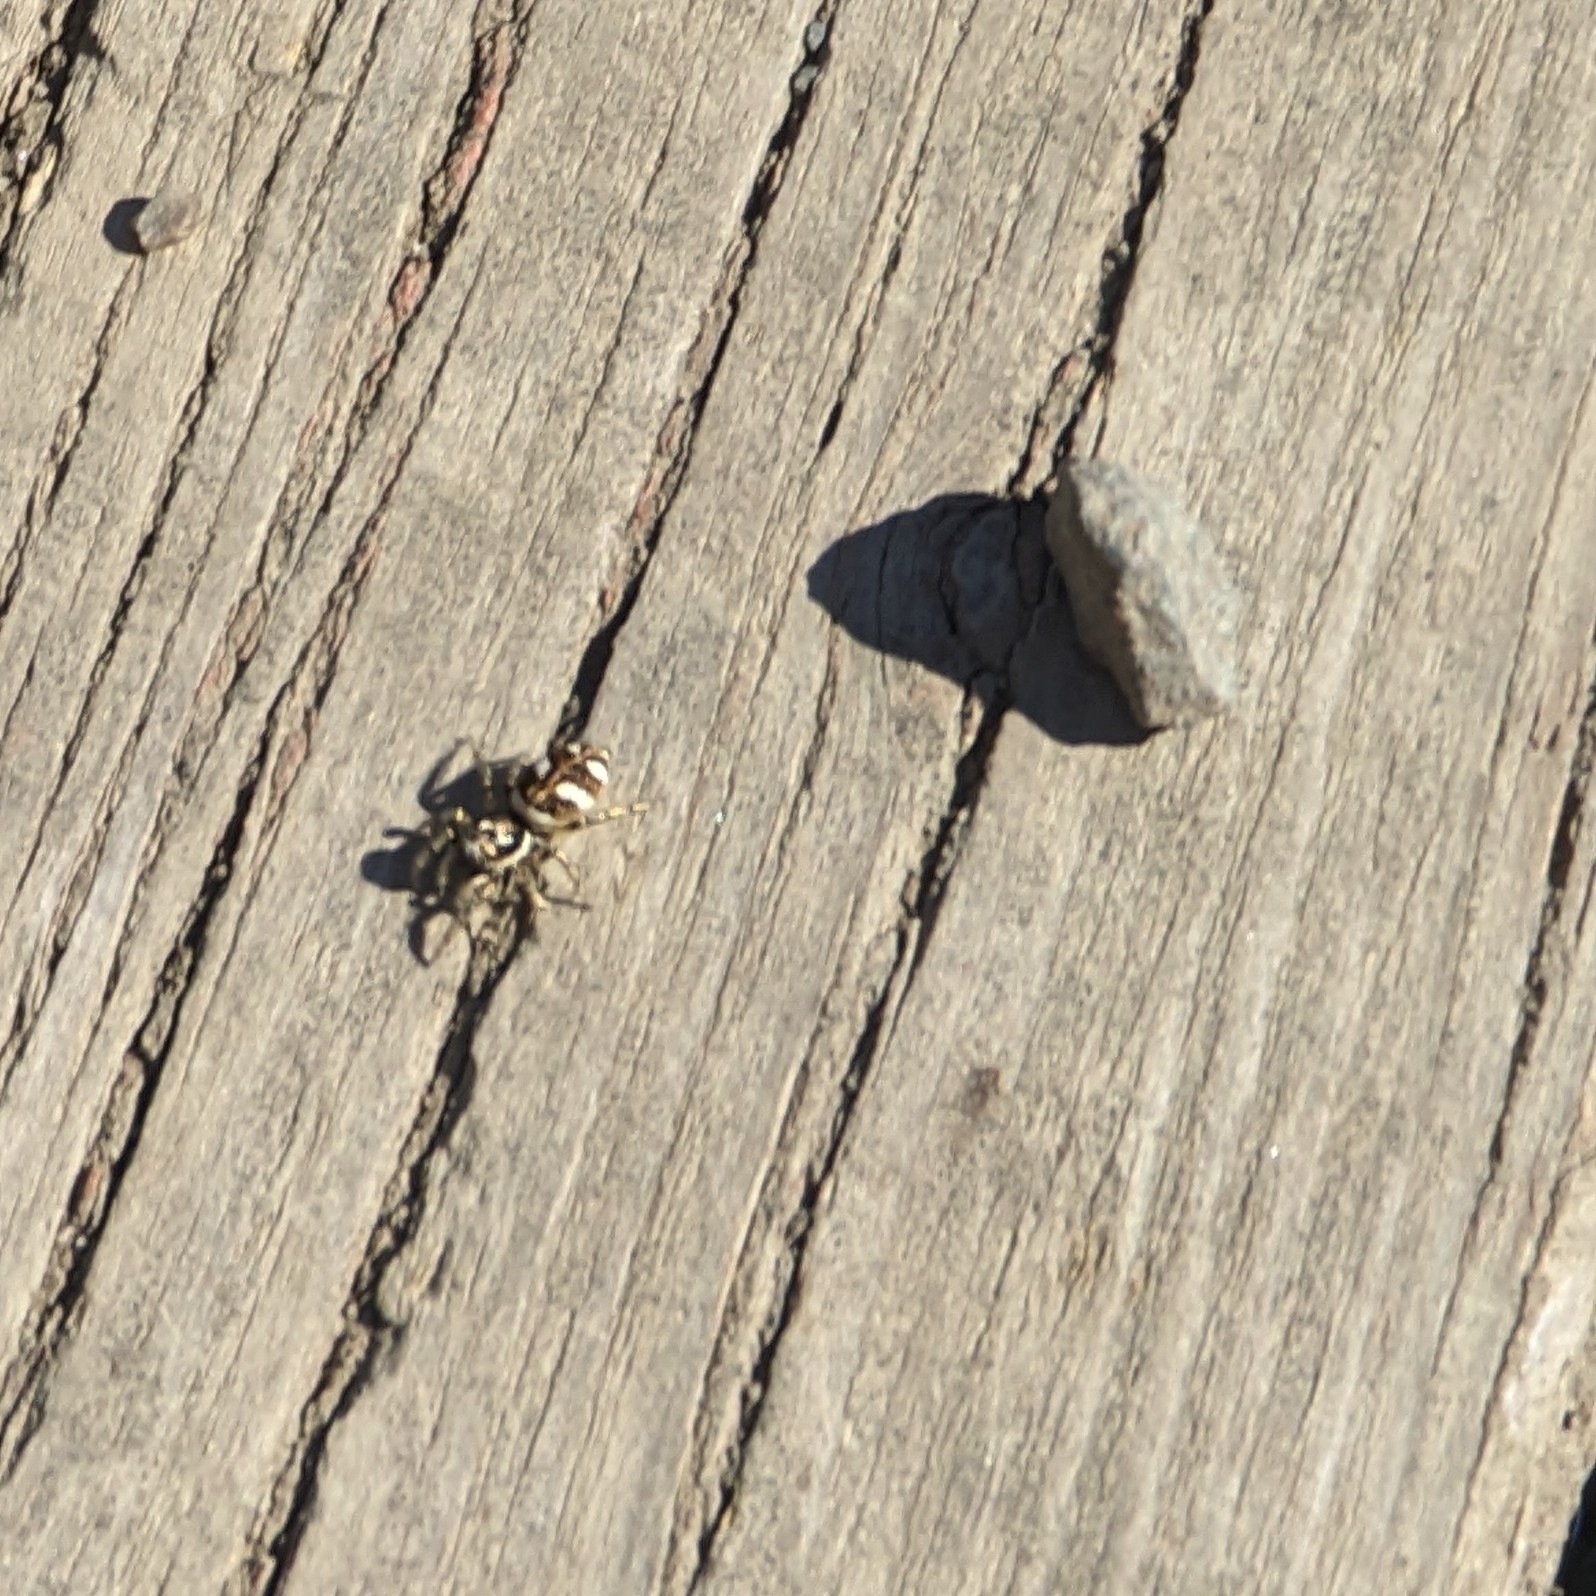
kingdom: Animalia
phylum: Arthropoda
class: Arachnida
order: Araneae
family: Salticidae
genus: Salticus
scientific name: Salticus scenicus
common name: Zebra jumper
